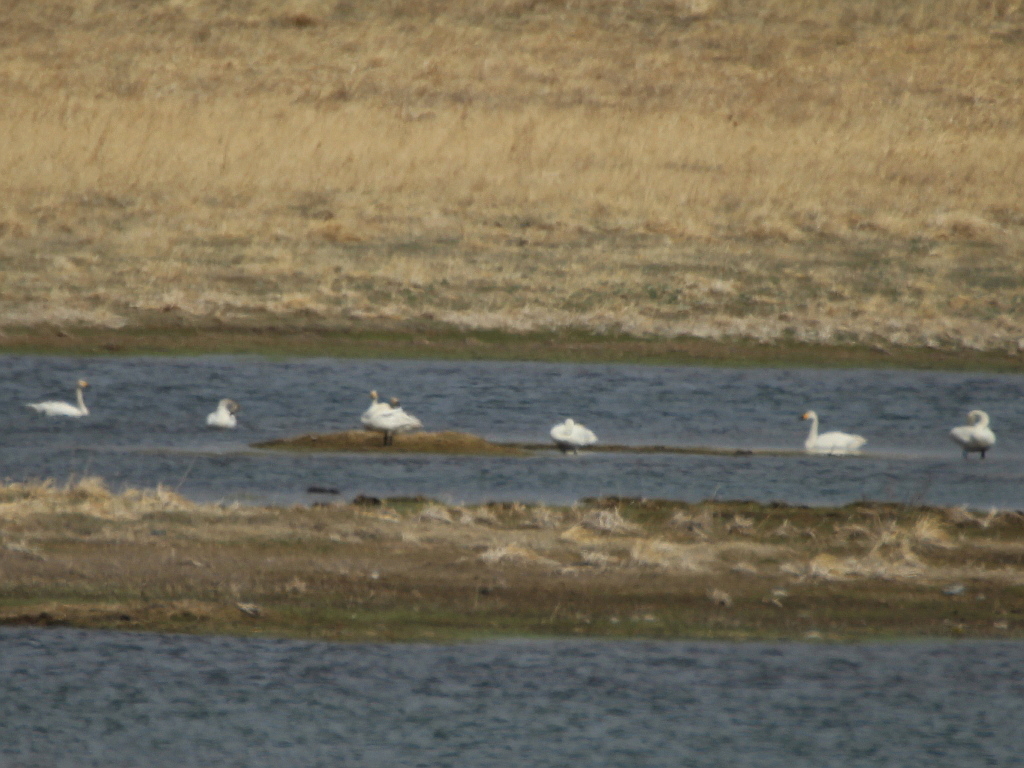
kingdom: Animalia
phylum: Chordata
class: Aves
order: Anseriformes
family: Anatidae
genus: Cygnus
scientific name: Cygnus columbianus
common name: Tundra swan
